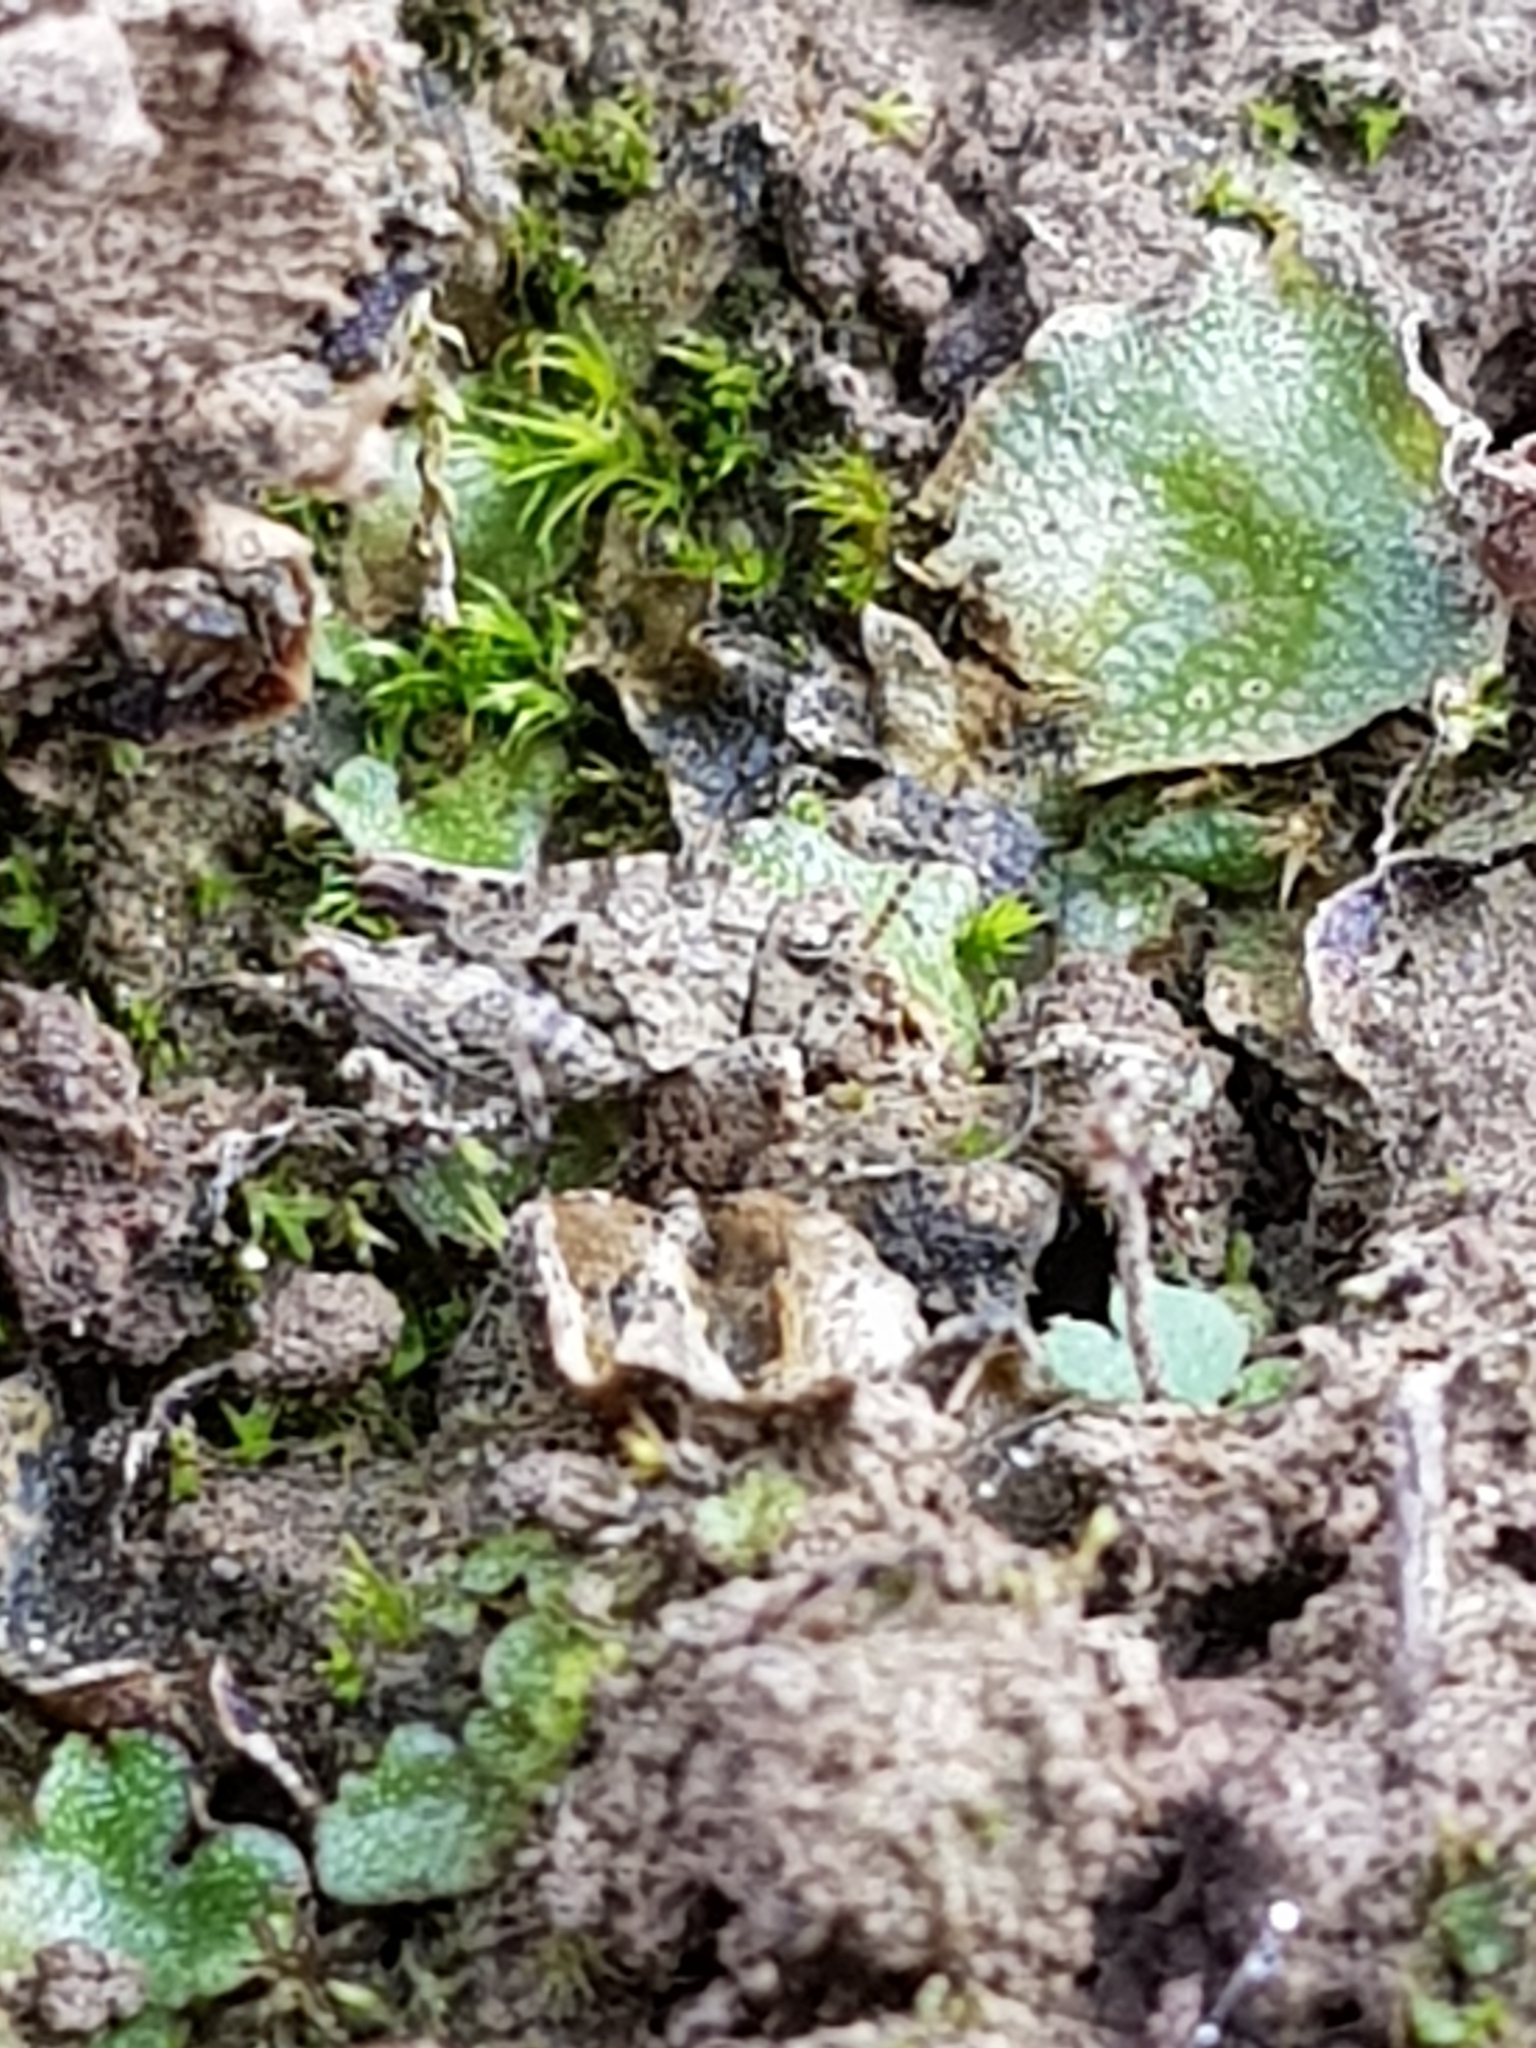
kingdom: Animalia
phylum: Arthropoda
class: Insecta
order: Orthoptera
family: Tetrigidae
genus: Tetrix
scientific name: Tetrix undulata
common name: Common groundhopper
